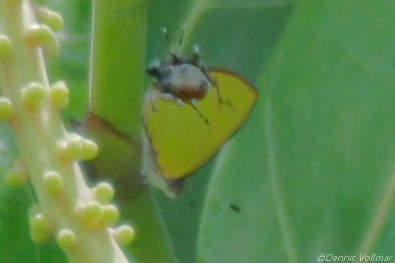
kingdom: Animalia
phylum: Arthropoda
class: Insecta
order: Lepidoptera
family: Lycaenidae
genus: Thecla
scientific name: Thecla maesites
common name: Verde azul hairstreak
